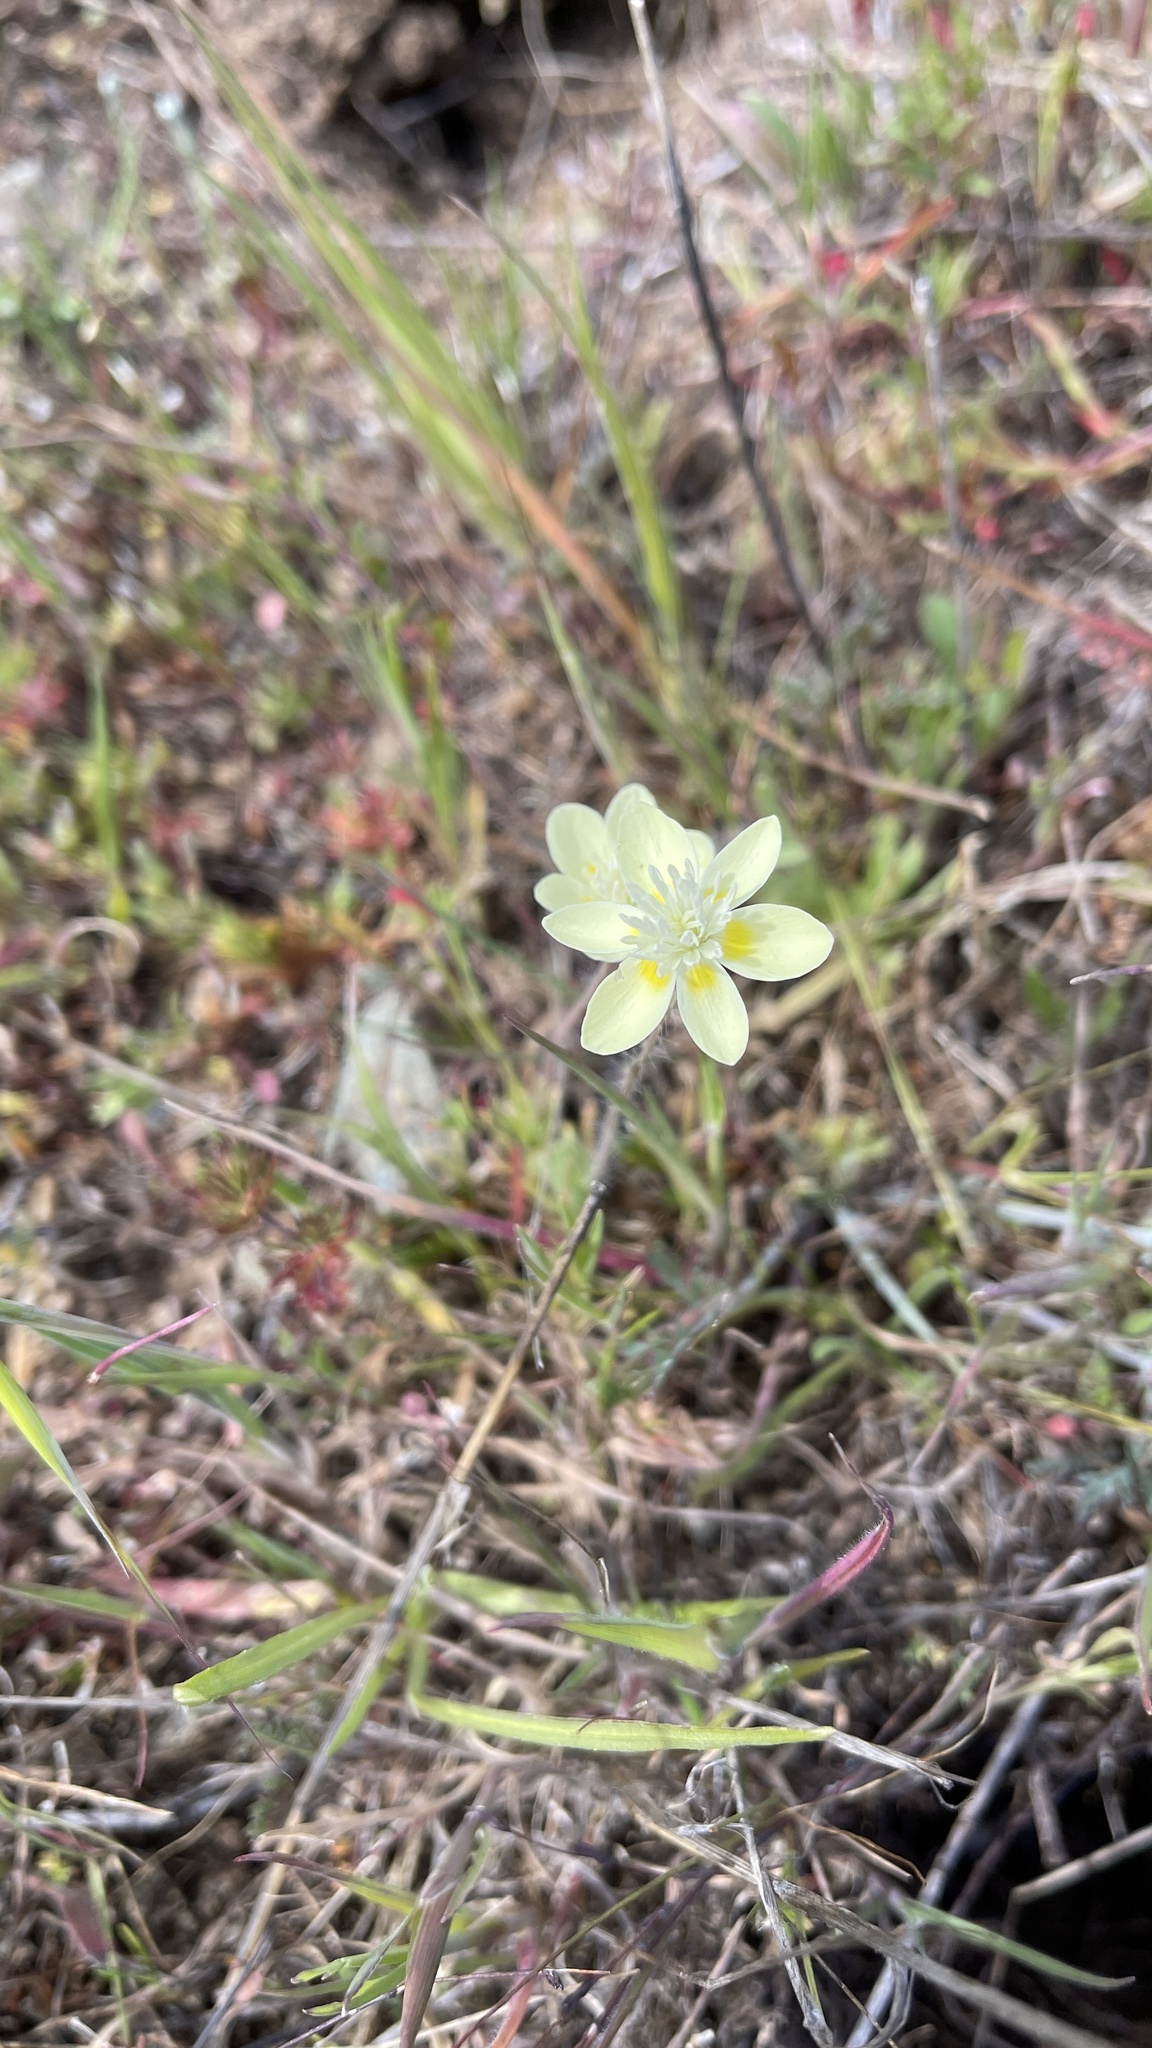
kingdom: Plantae
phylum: Tracheophyta
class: Magnoliopsida
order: Ranunculales
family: Papaveraceae
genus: Platystemon
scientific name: Platystemon californicus
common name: Cream-cups
